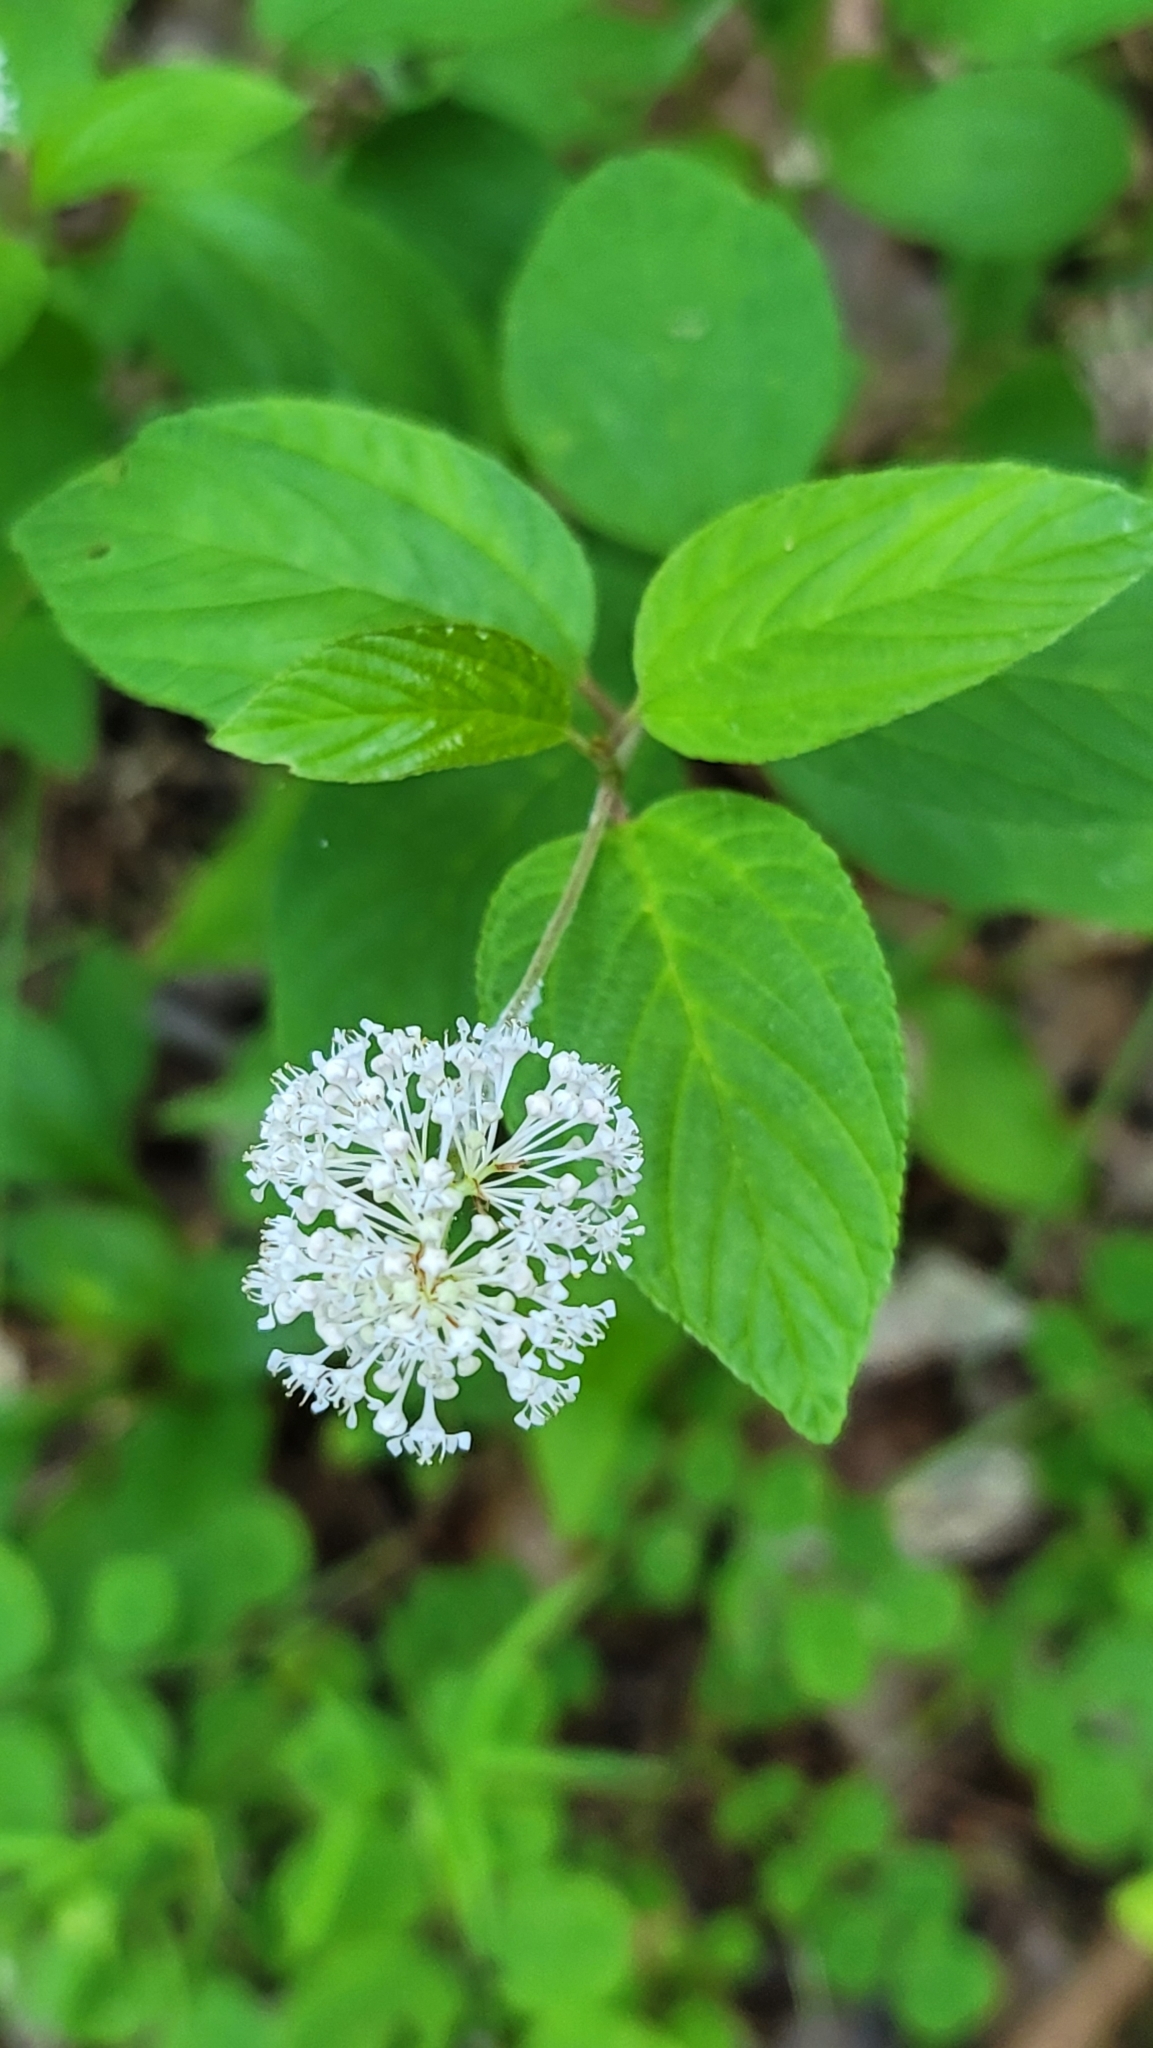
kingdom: Plantae
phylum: Tracheophyta
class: Magnoliopsida
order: Rosales
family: Rhamnaceae
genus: Ceanothus
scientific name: Ceanothus americanus
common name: Redroot
